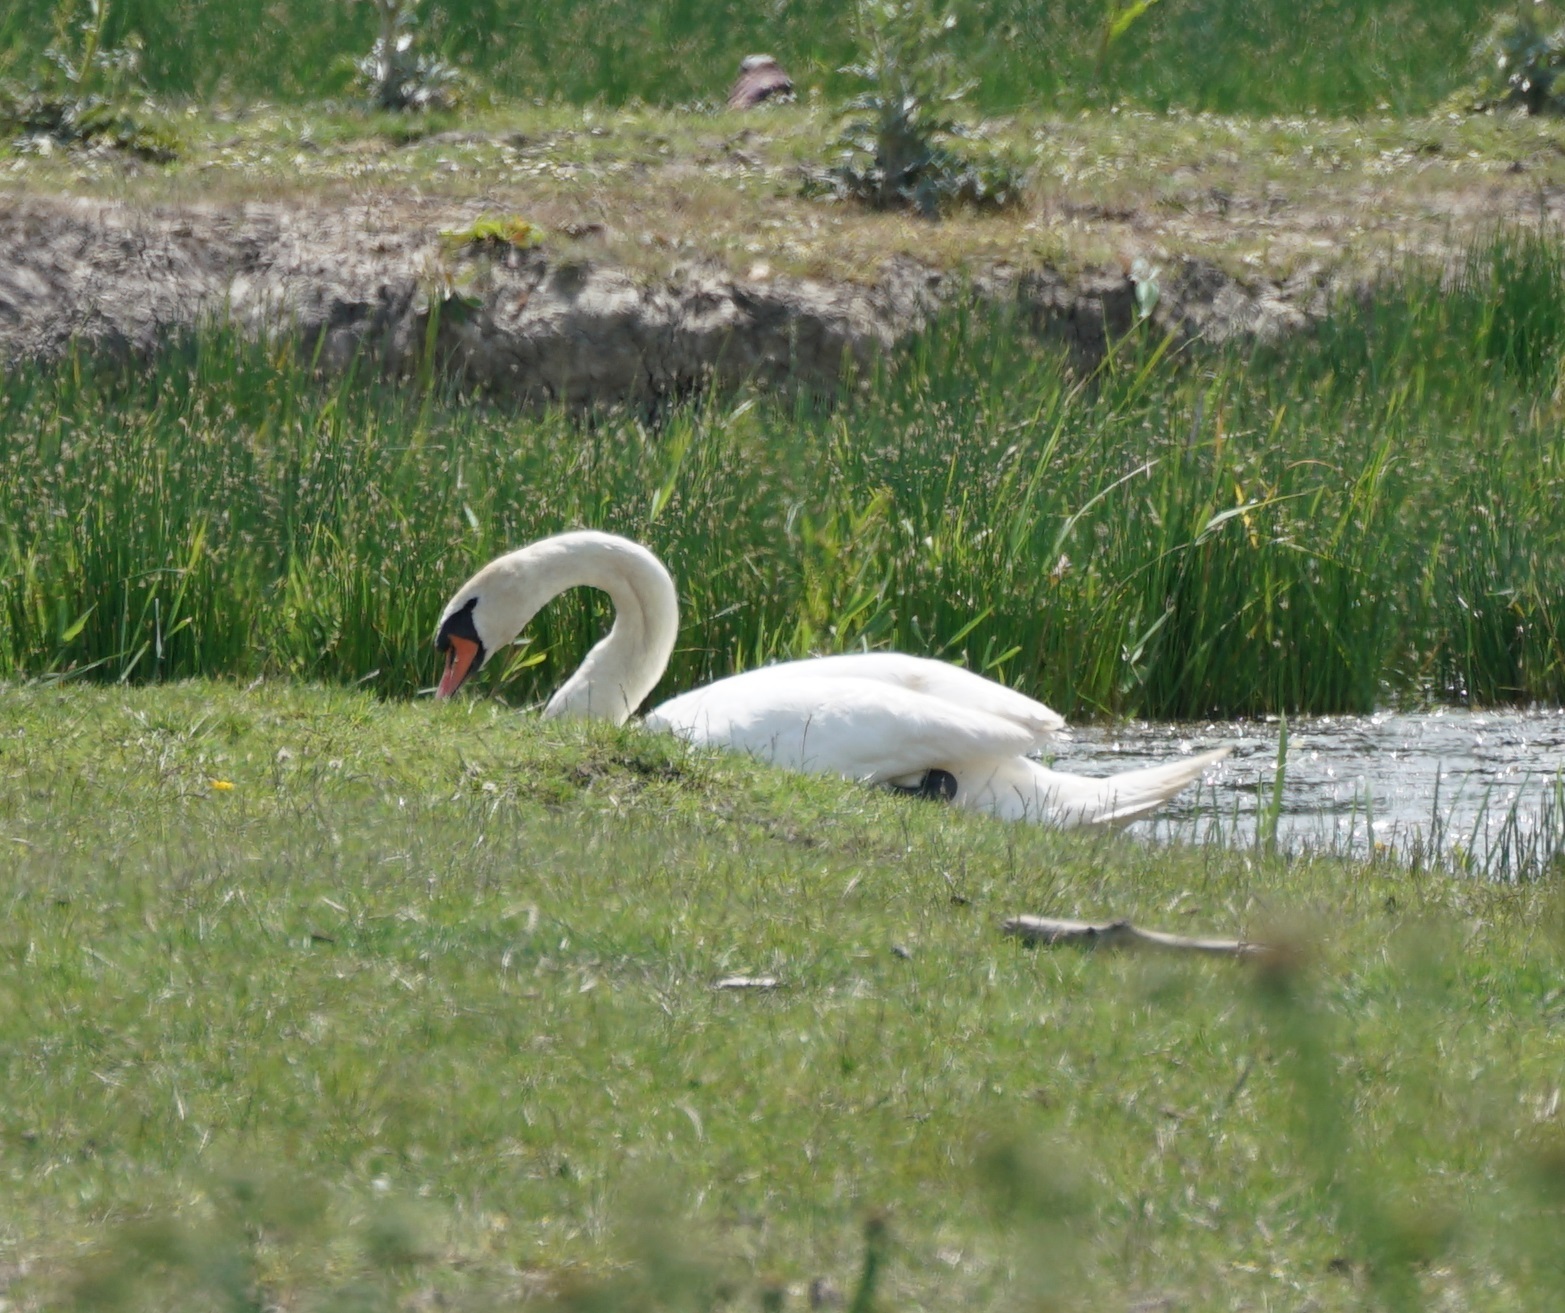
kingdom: Animalia
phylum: Chordata
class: Aves
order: Anseriformes
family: Anatidae
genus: Cygnus
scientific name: Cygnus olor
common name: Mute swan
